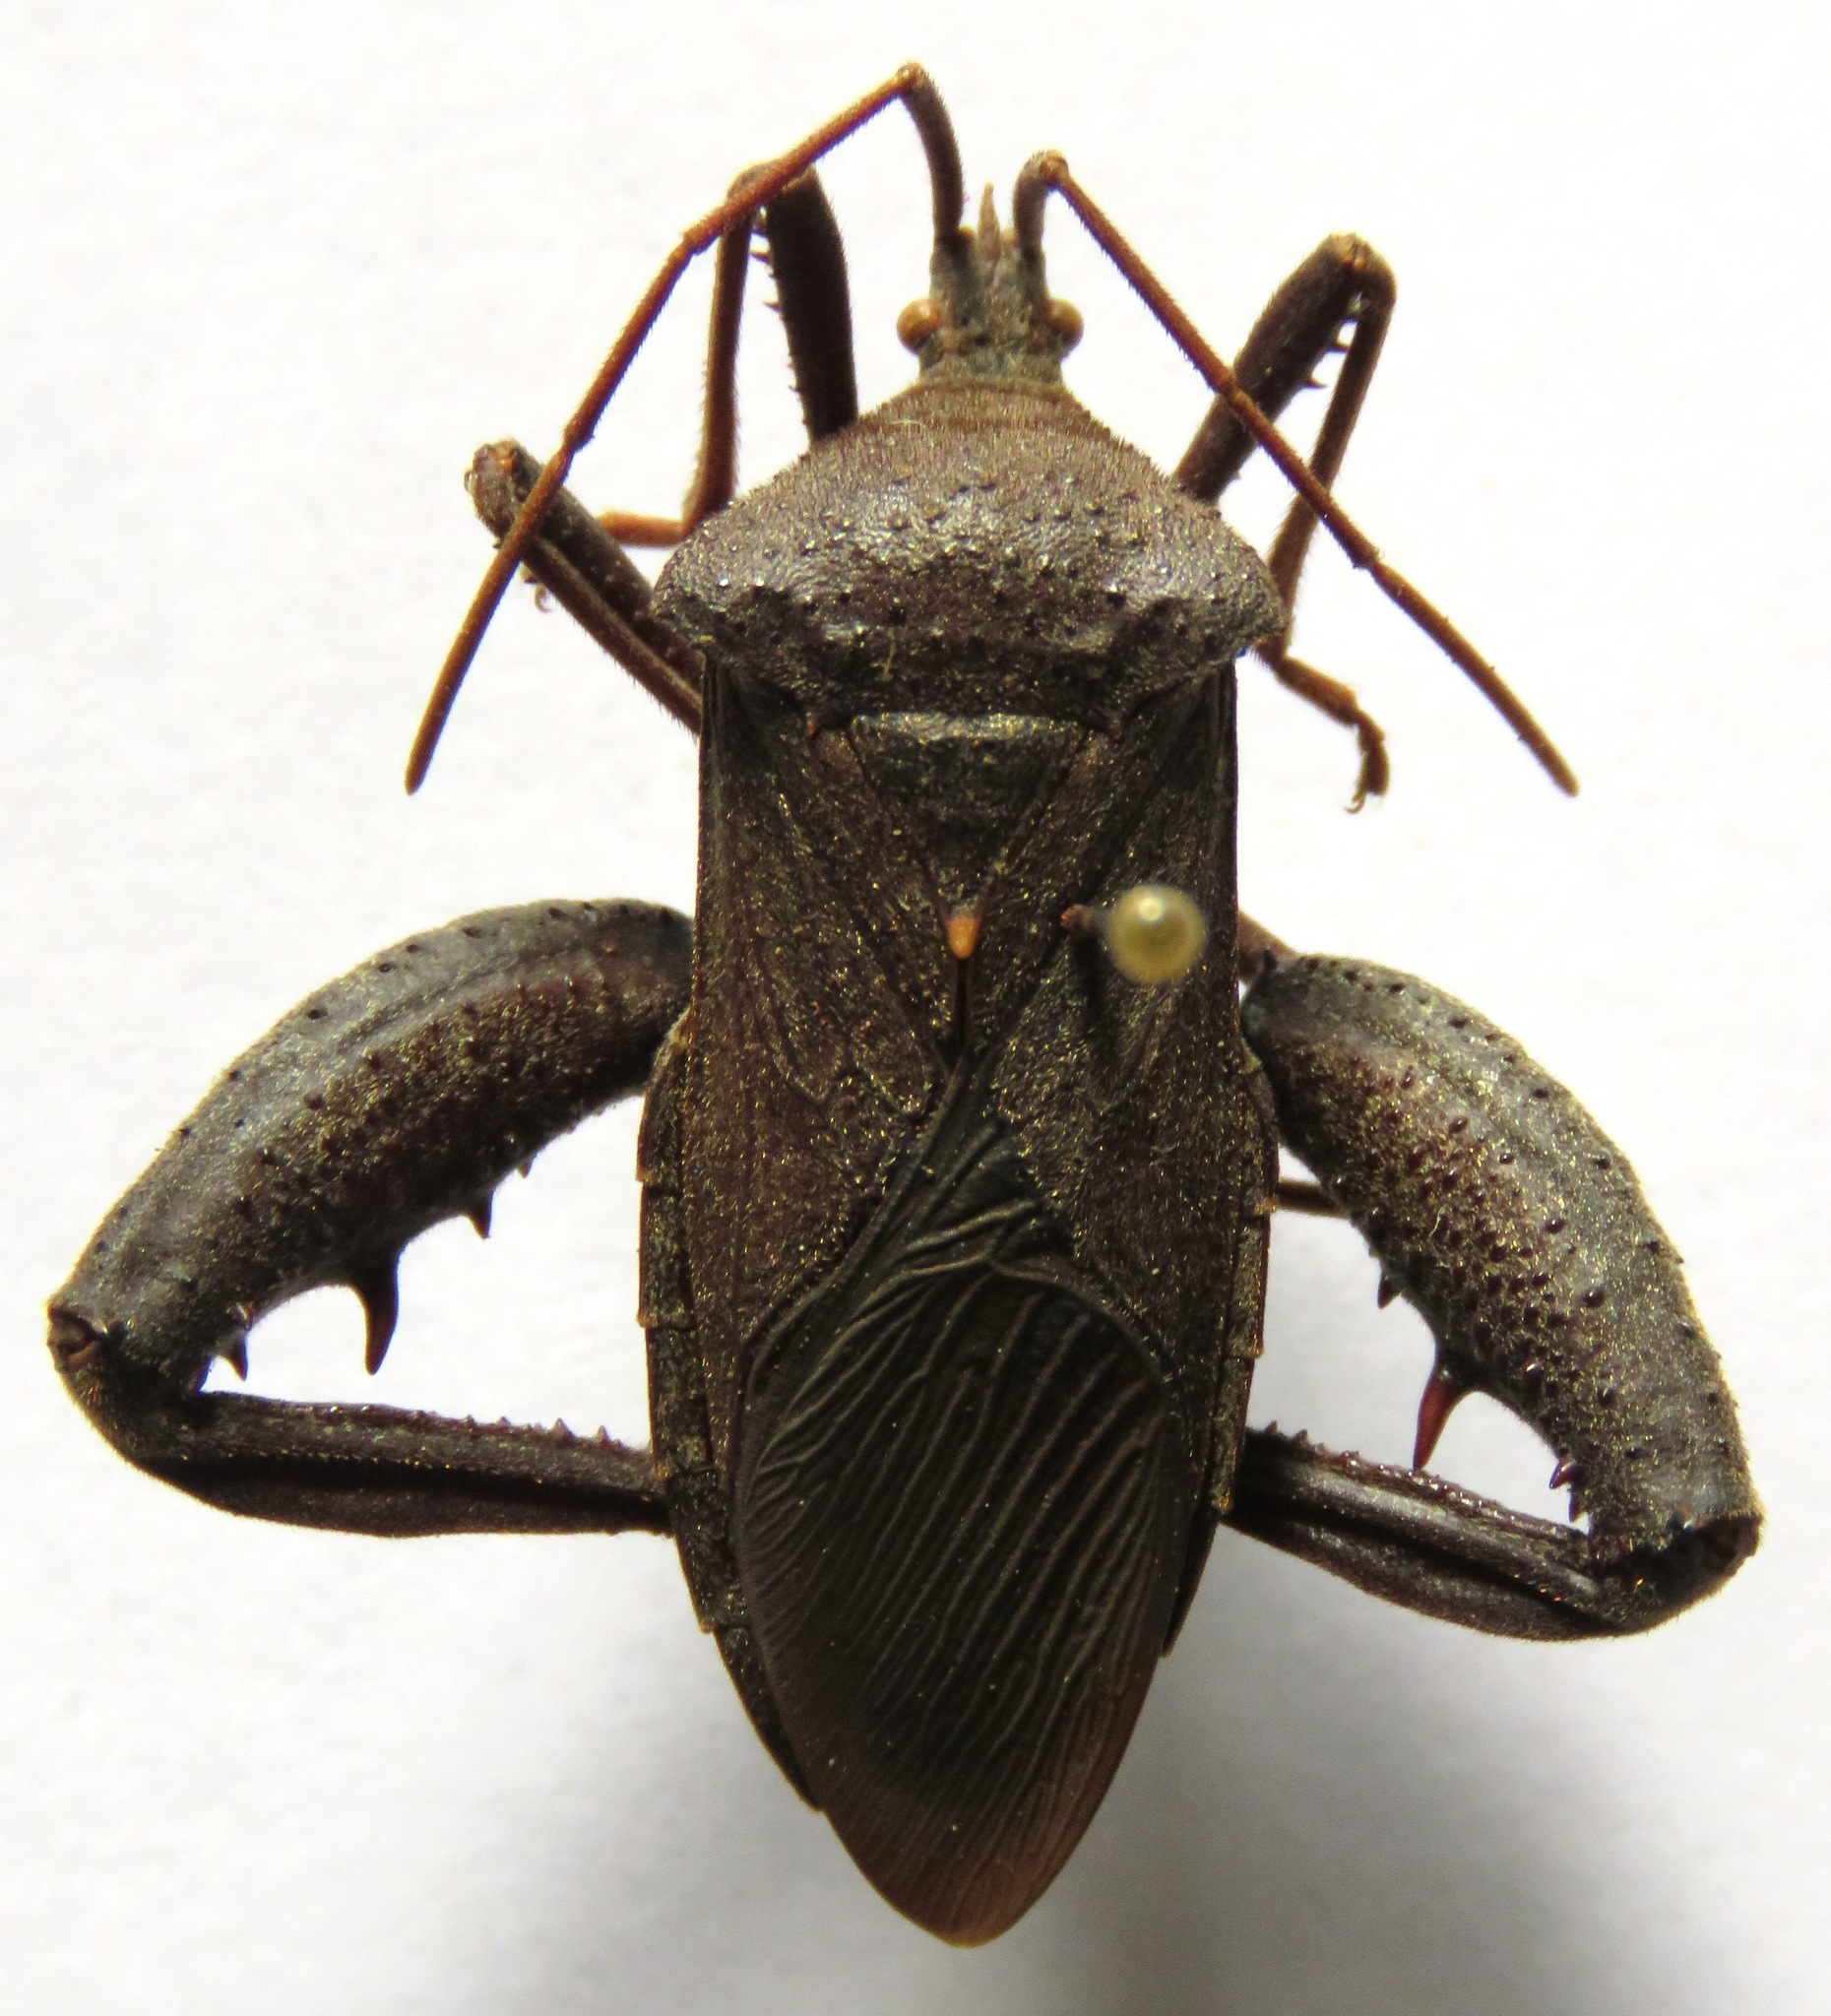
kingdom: Animalia
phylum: Arthropoda
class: Insecta
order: Hemiptera
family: Coreidae
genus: Acanthocephala
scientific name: Acanthocephala femorata
